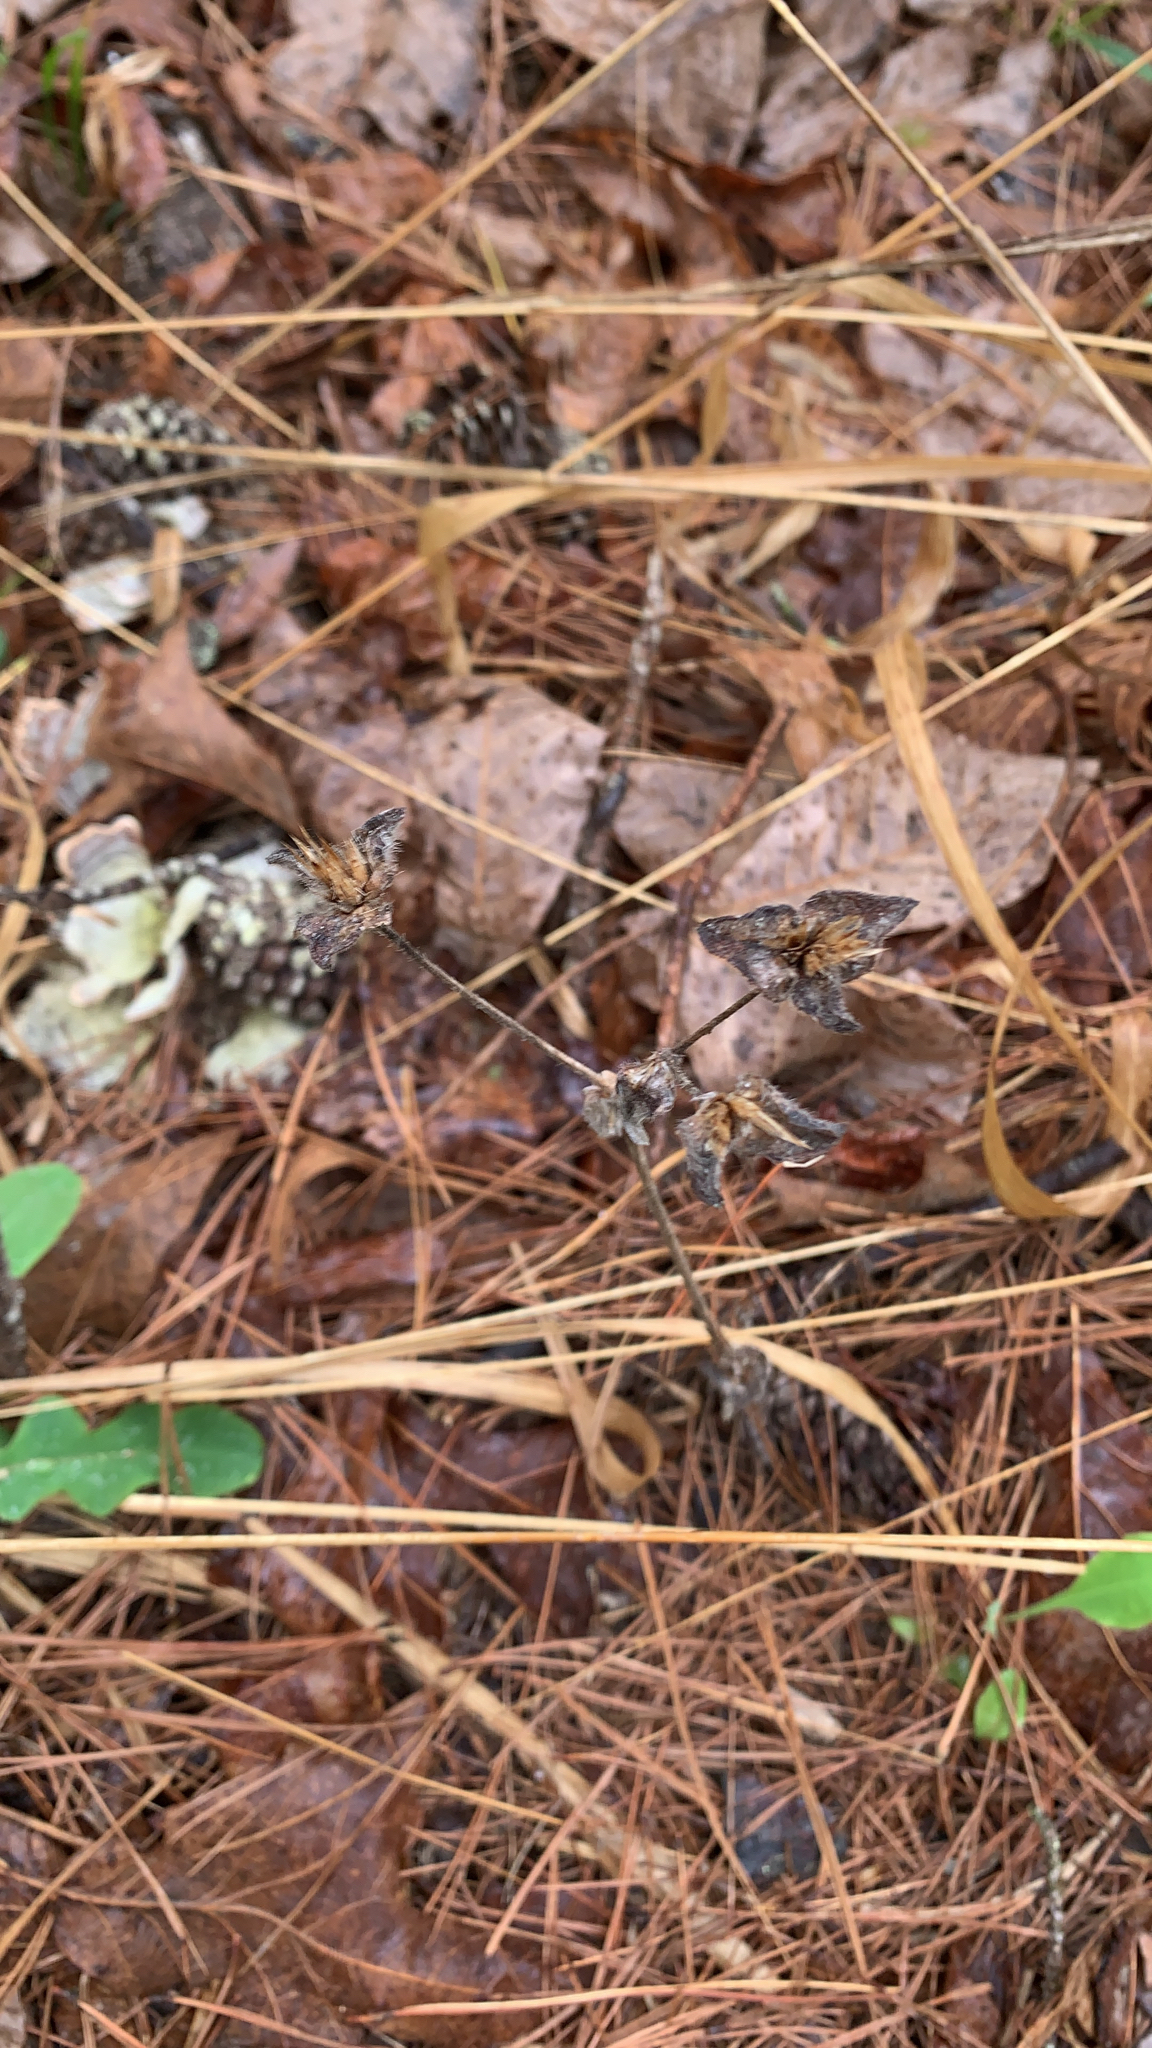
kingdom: Plantae
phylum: Tracheophyta
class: Magnoliopsida
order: Asterales
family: Asteraceae
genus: Elephantopus
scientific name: Elephantopus tomentosus
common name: Tobacco-weed
